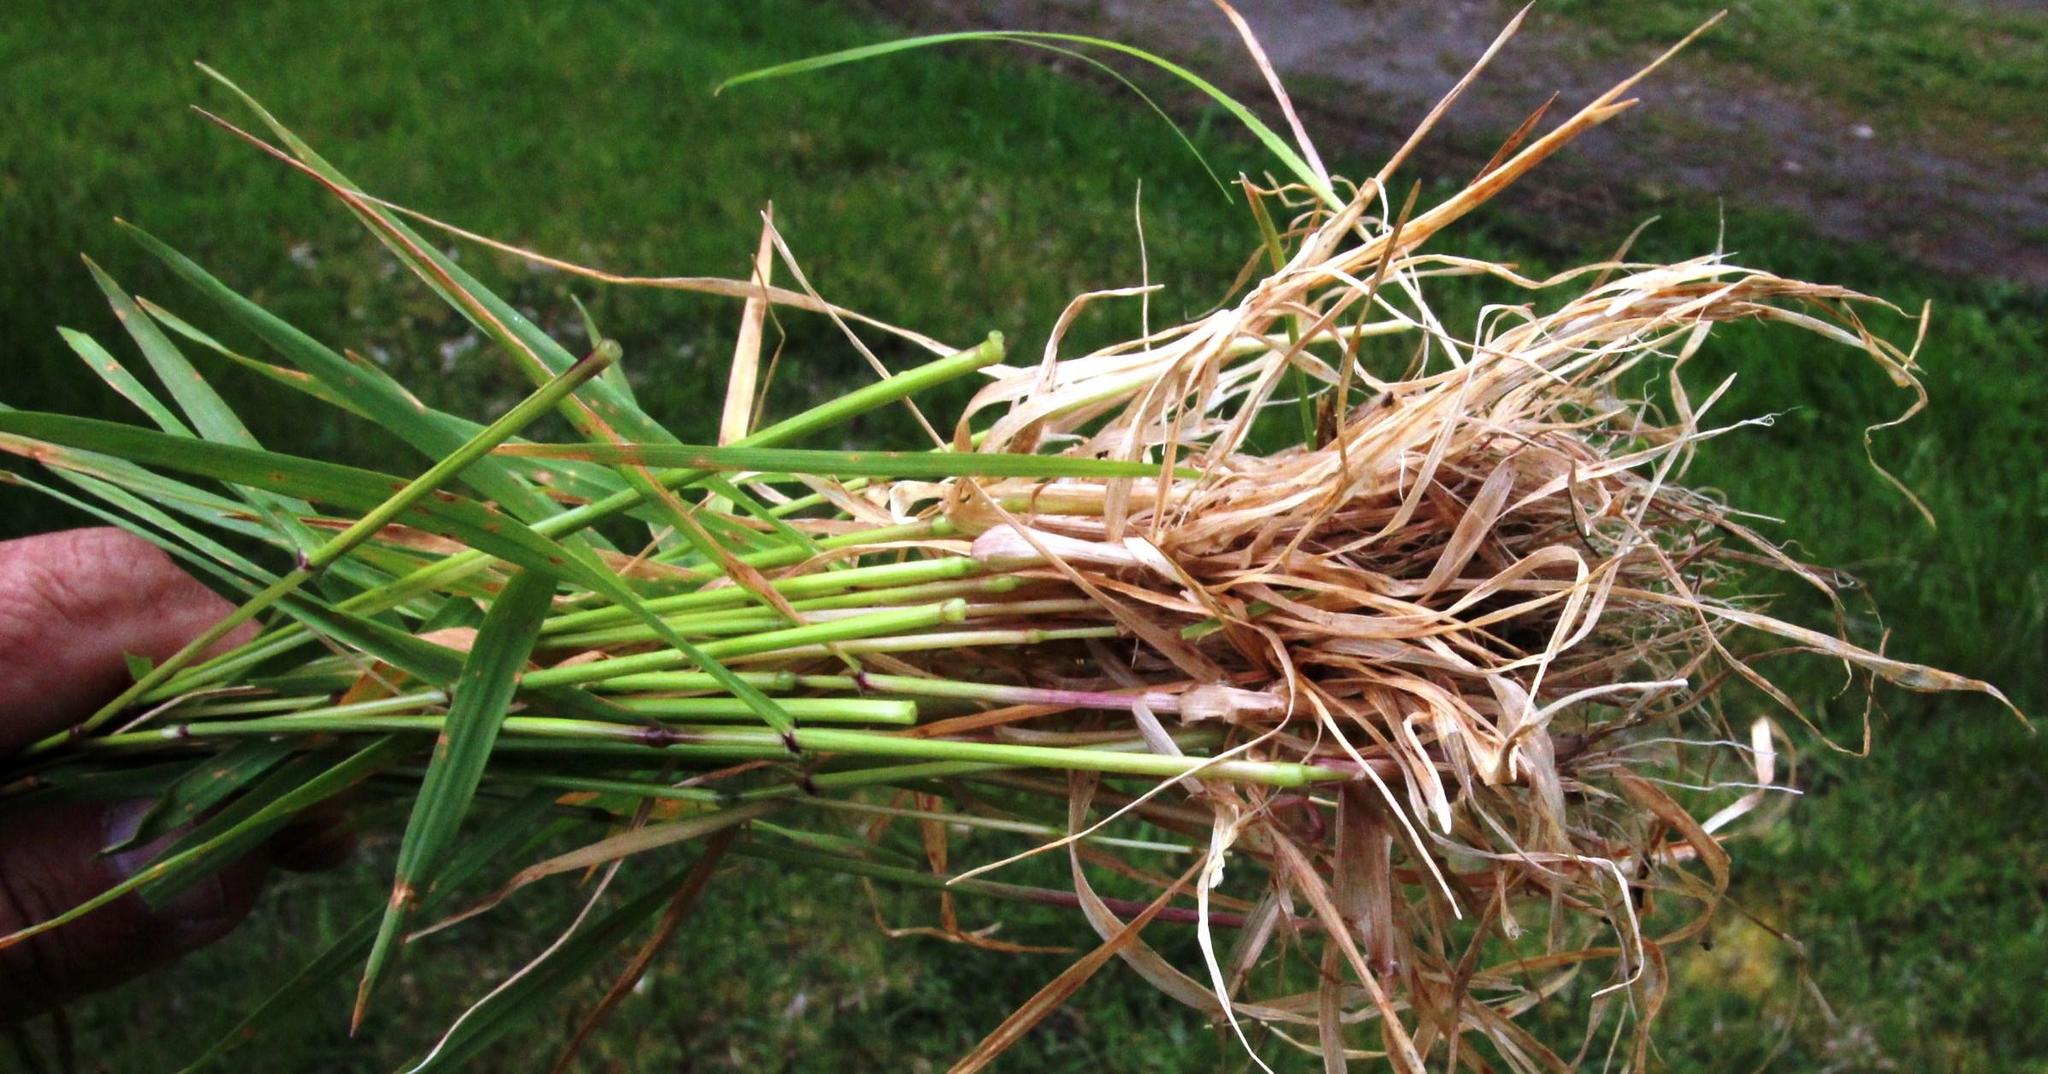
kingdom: Plantae
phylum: Tracheophyta
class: Liliopsida
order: Poales
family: Poaceae
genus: Anthoxanthum
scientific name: Anthoxanthum odoratum
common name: Sweet vernalgrass
